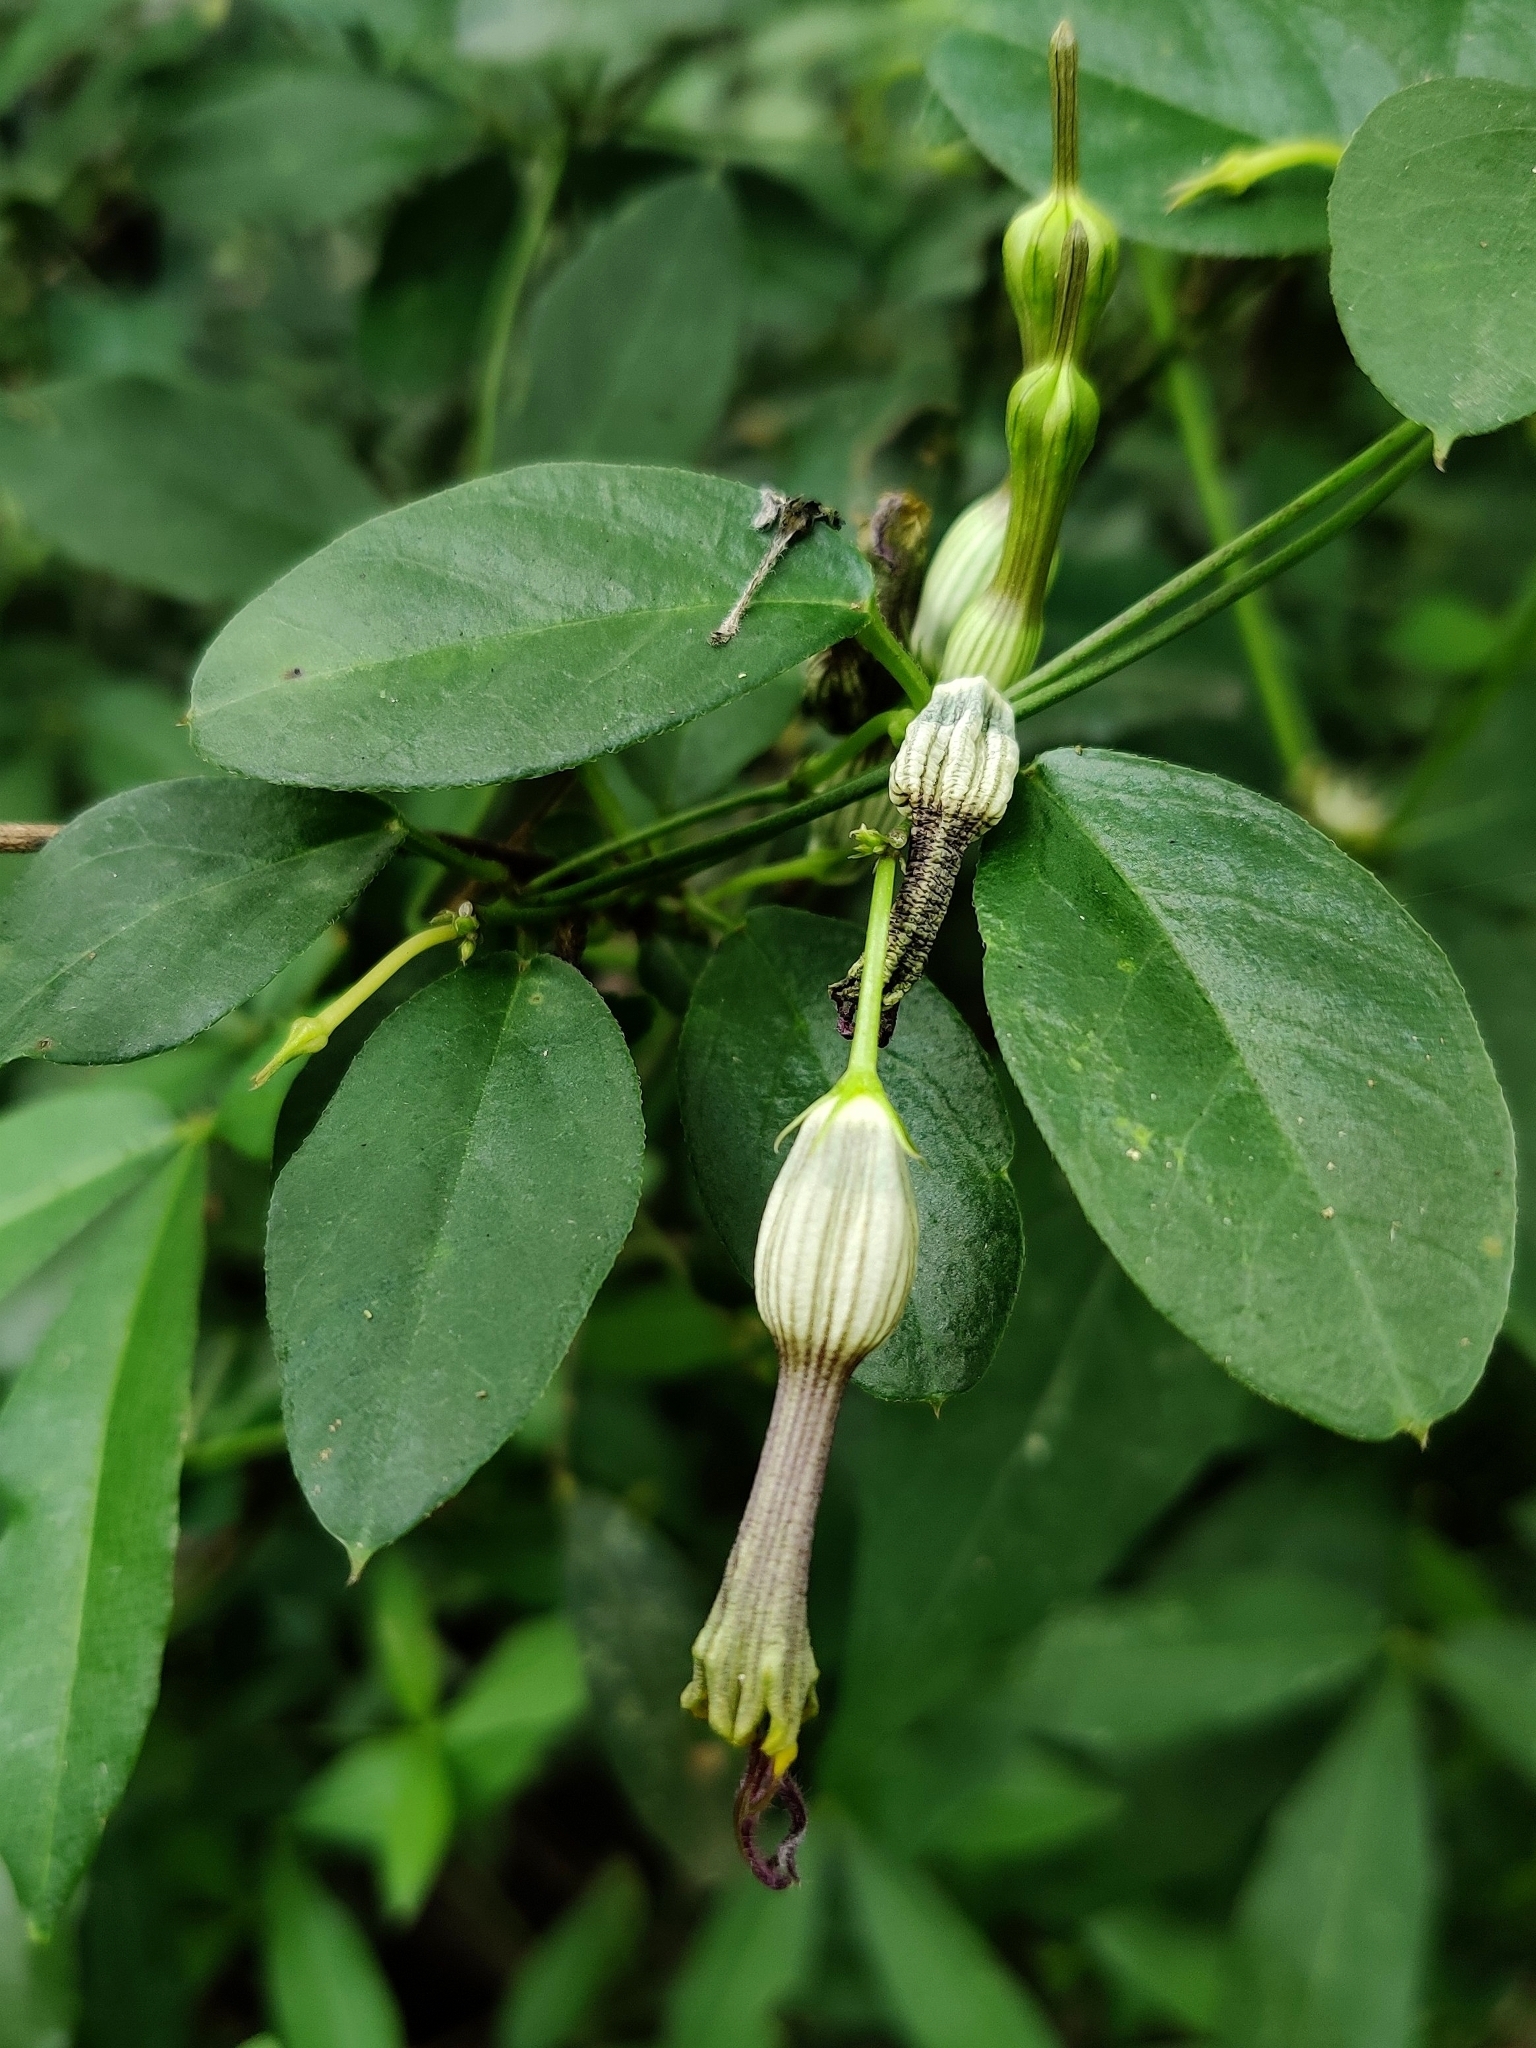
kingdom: Plantae
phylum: Tracheophyta
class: Magnoliopsida
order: Gentianales
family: Apocynaceae
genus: Ceropegia
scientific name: Ceropegia candelabrum
